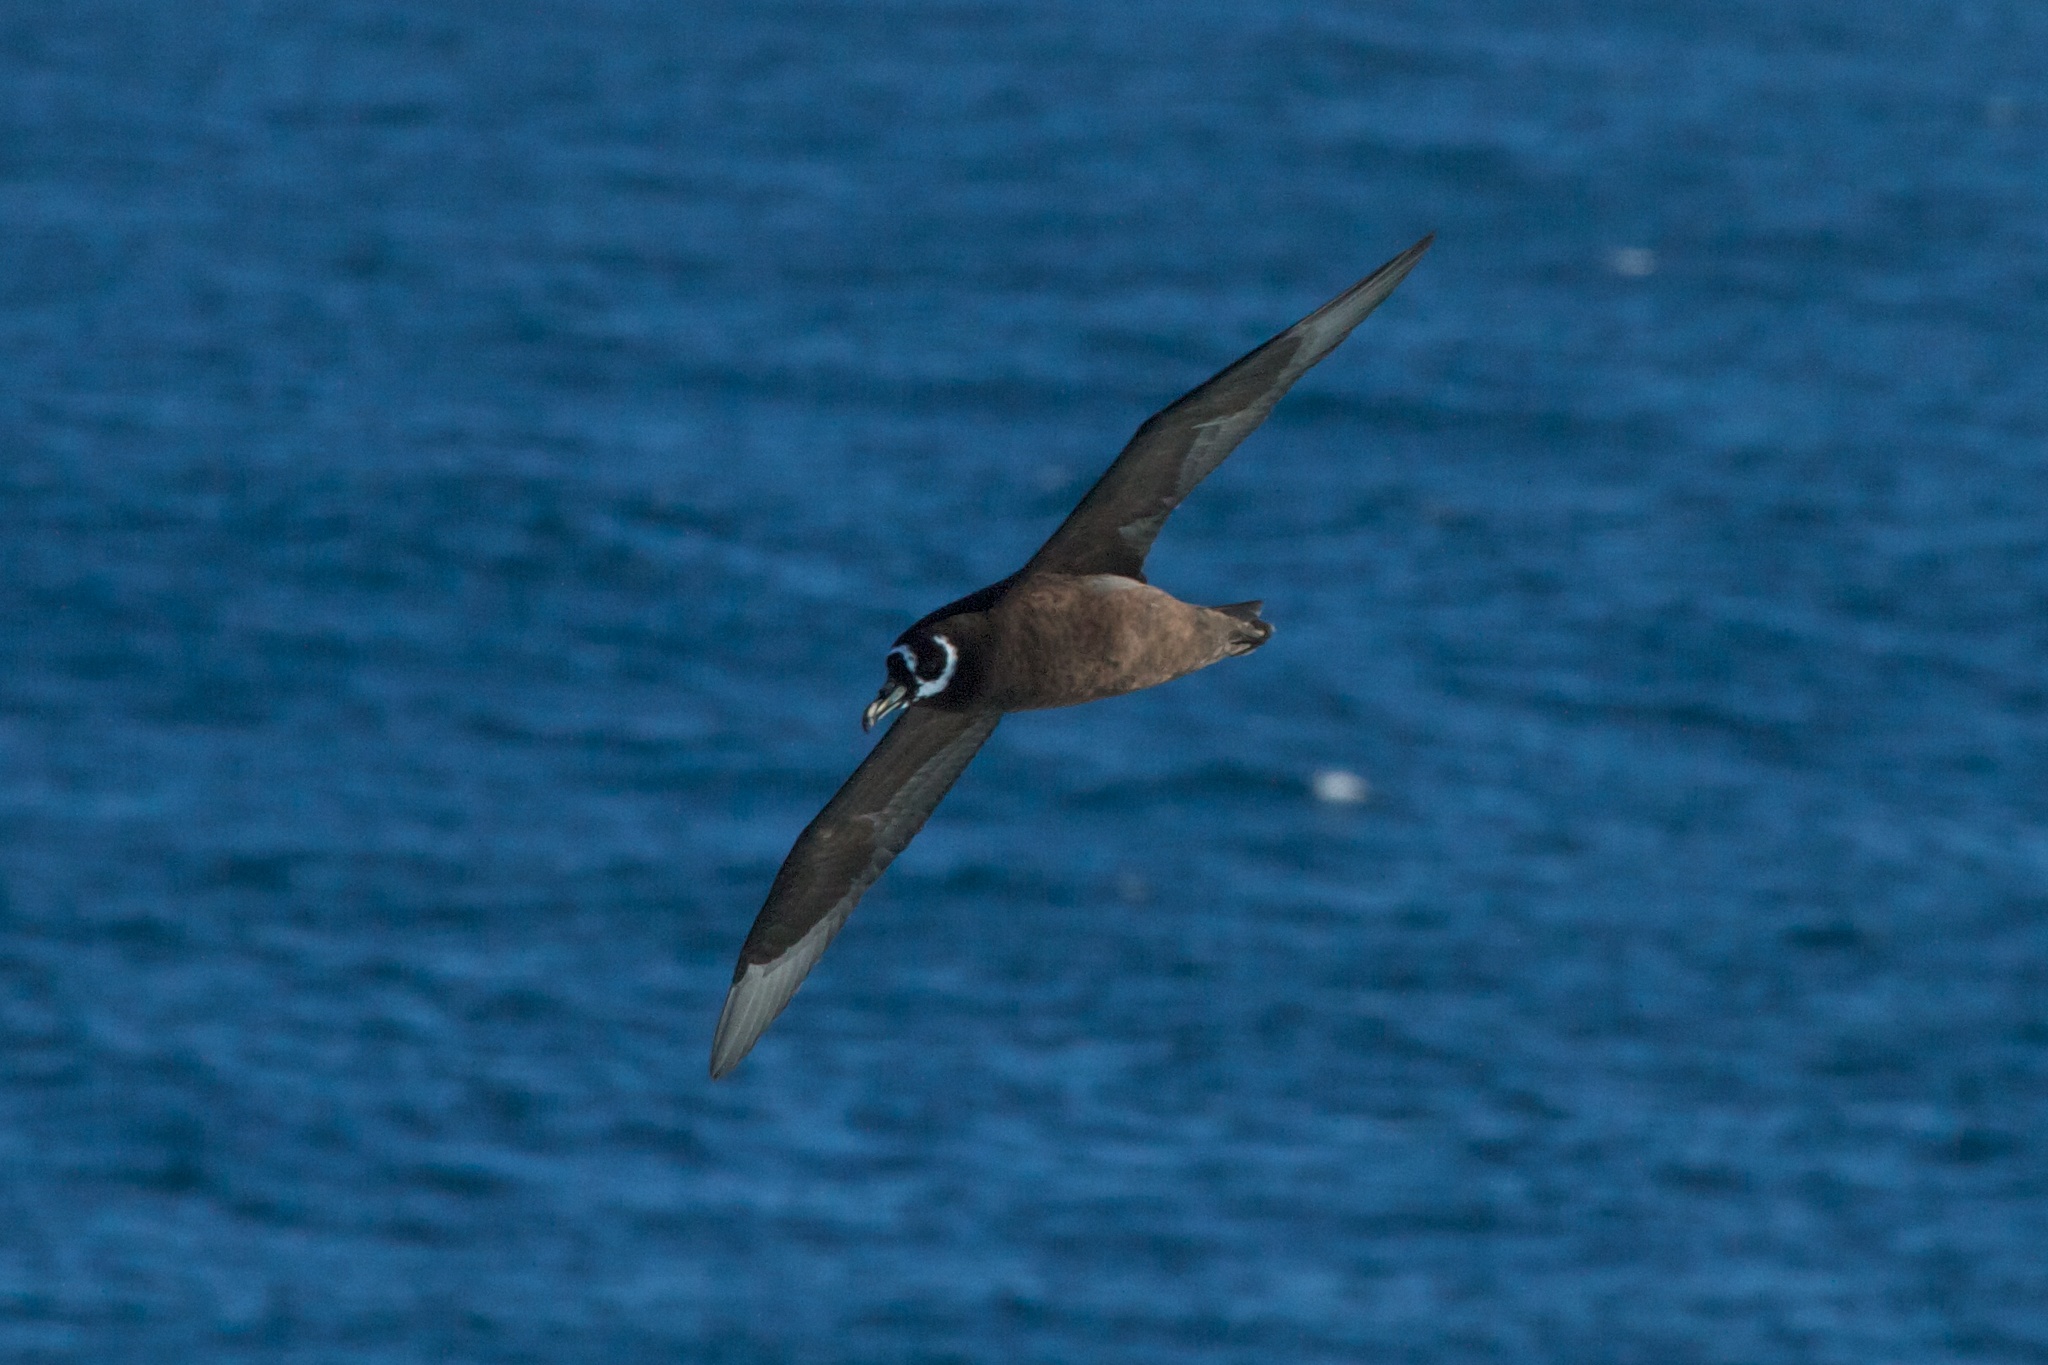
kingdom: Animalia
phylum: Chordata
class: Aves
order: Procellariiformes
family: Procellariidae
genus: Procellaria
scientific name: Procellaria conspicillata
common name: Spectacled petrel
